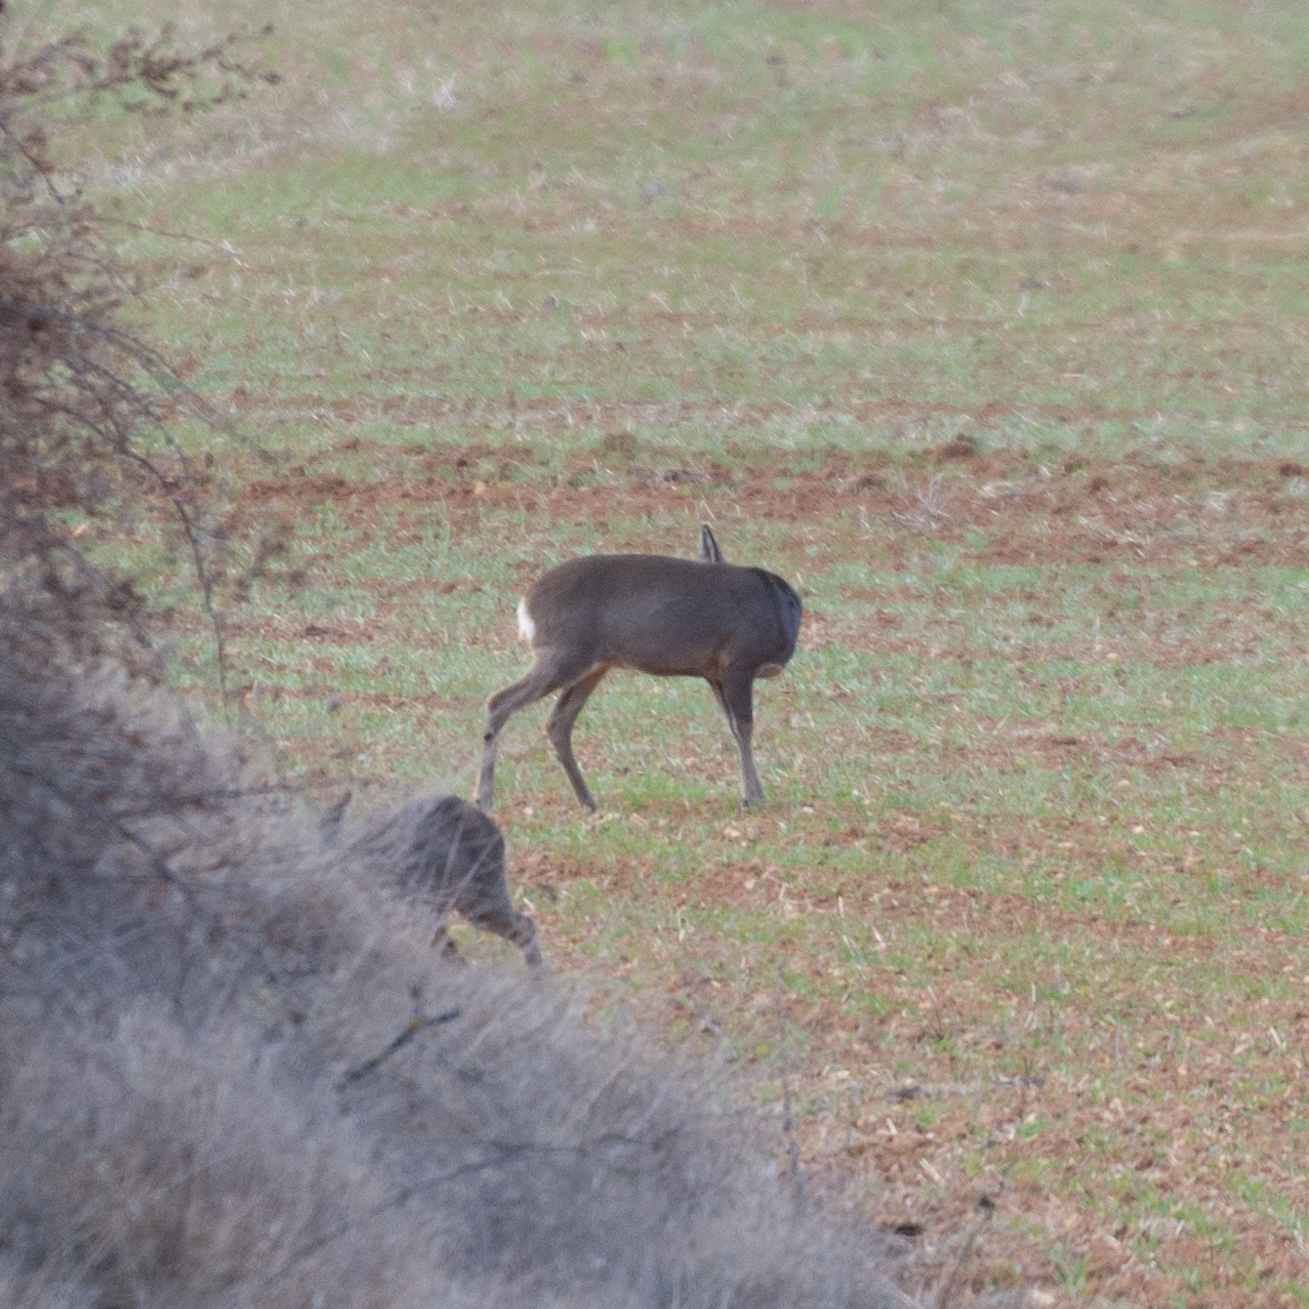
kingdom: Animalia
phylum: Chordata
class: Mammalia
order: Artiodactyla
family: Cervidae
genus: Capreolus
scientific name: Capreolus capreolus
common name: Western roe deer
